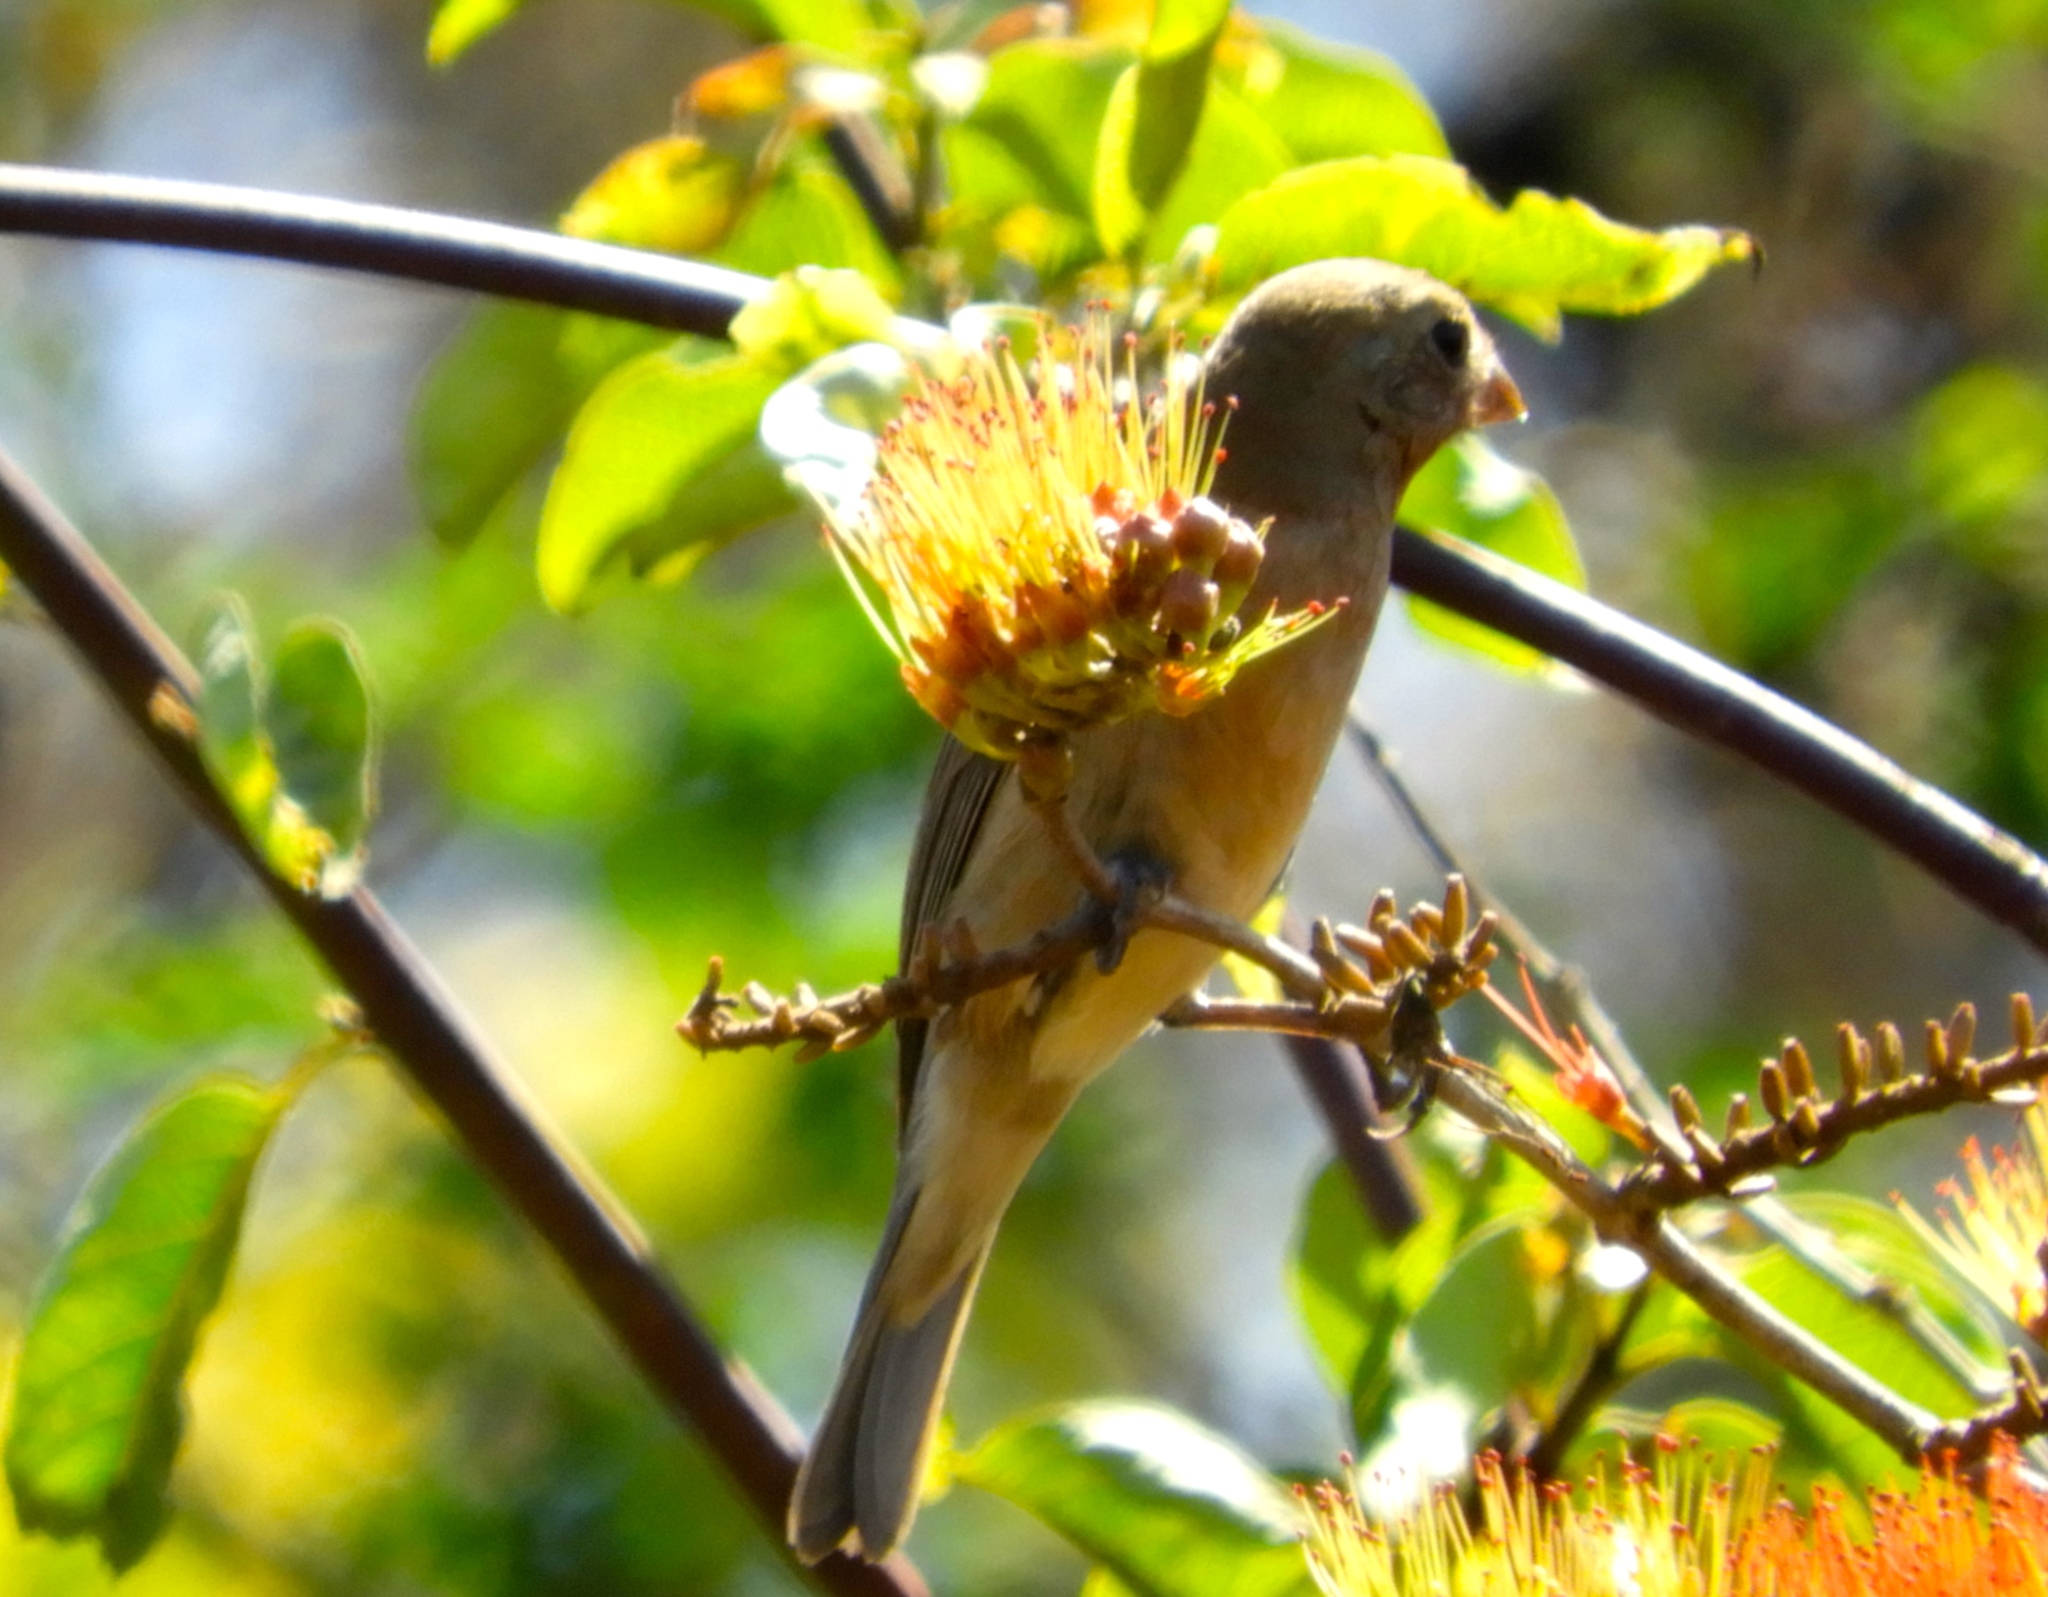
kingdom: Animalia
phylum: Chordata
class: Aves
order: Passeriformes
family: Cardinalidae
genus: Piranga
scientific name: Piranga ludoviciana
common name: Western tanager
